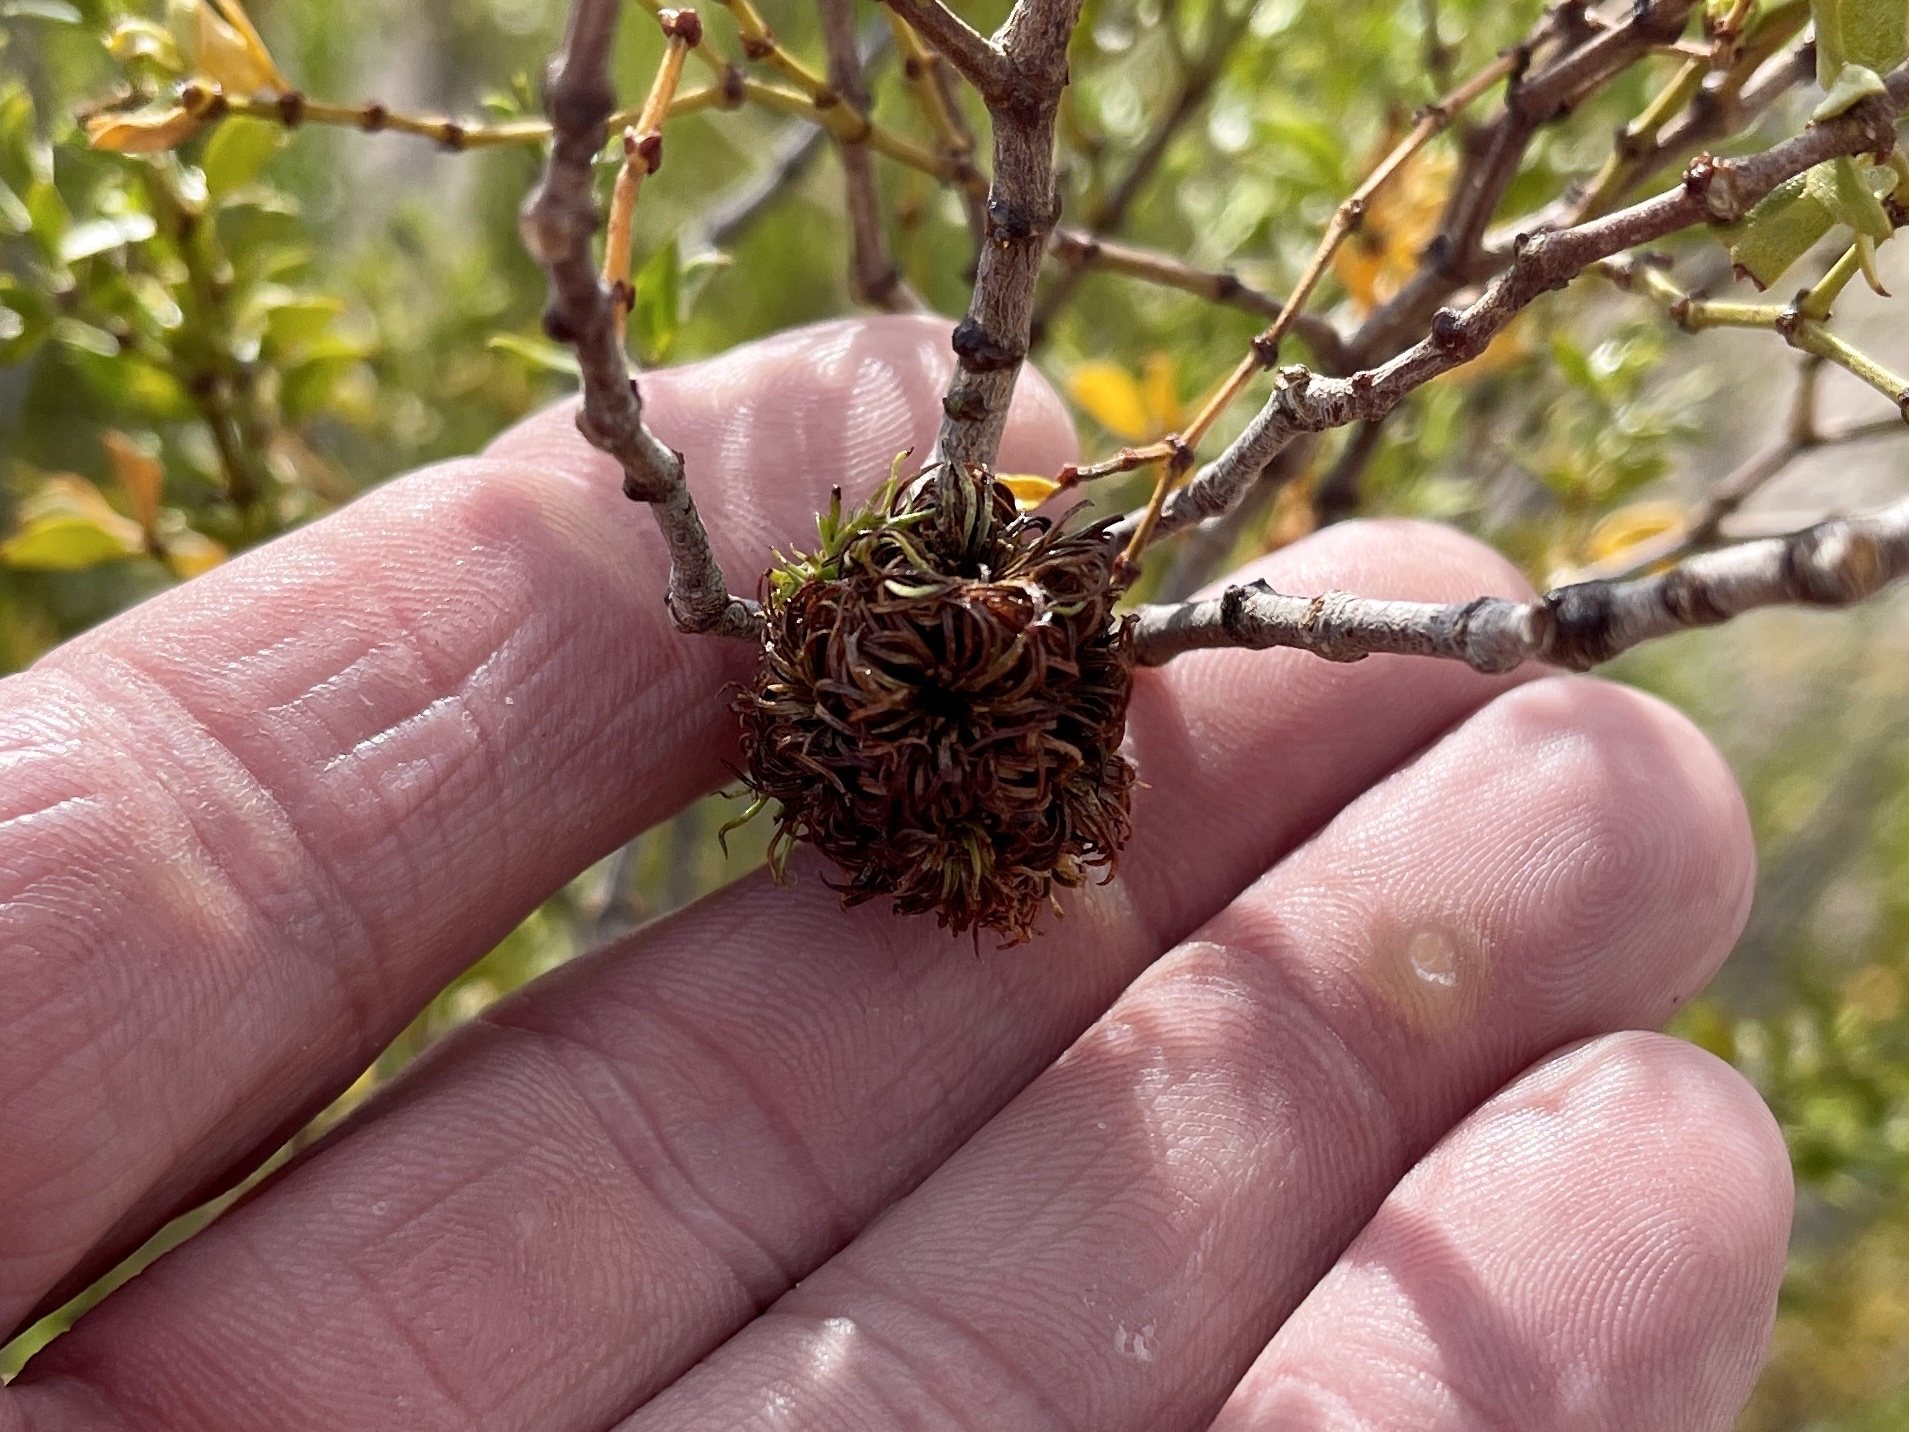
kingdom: Animalia
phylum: Arthropoda
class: Insecta
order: Diptera
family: Cecidomyiidae
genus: Asphondylia
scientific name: Asphondylia auripila
